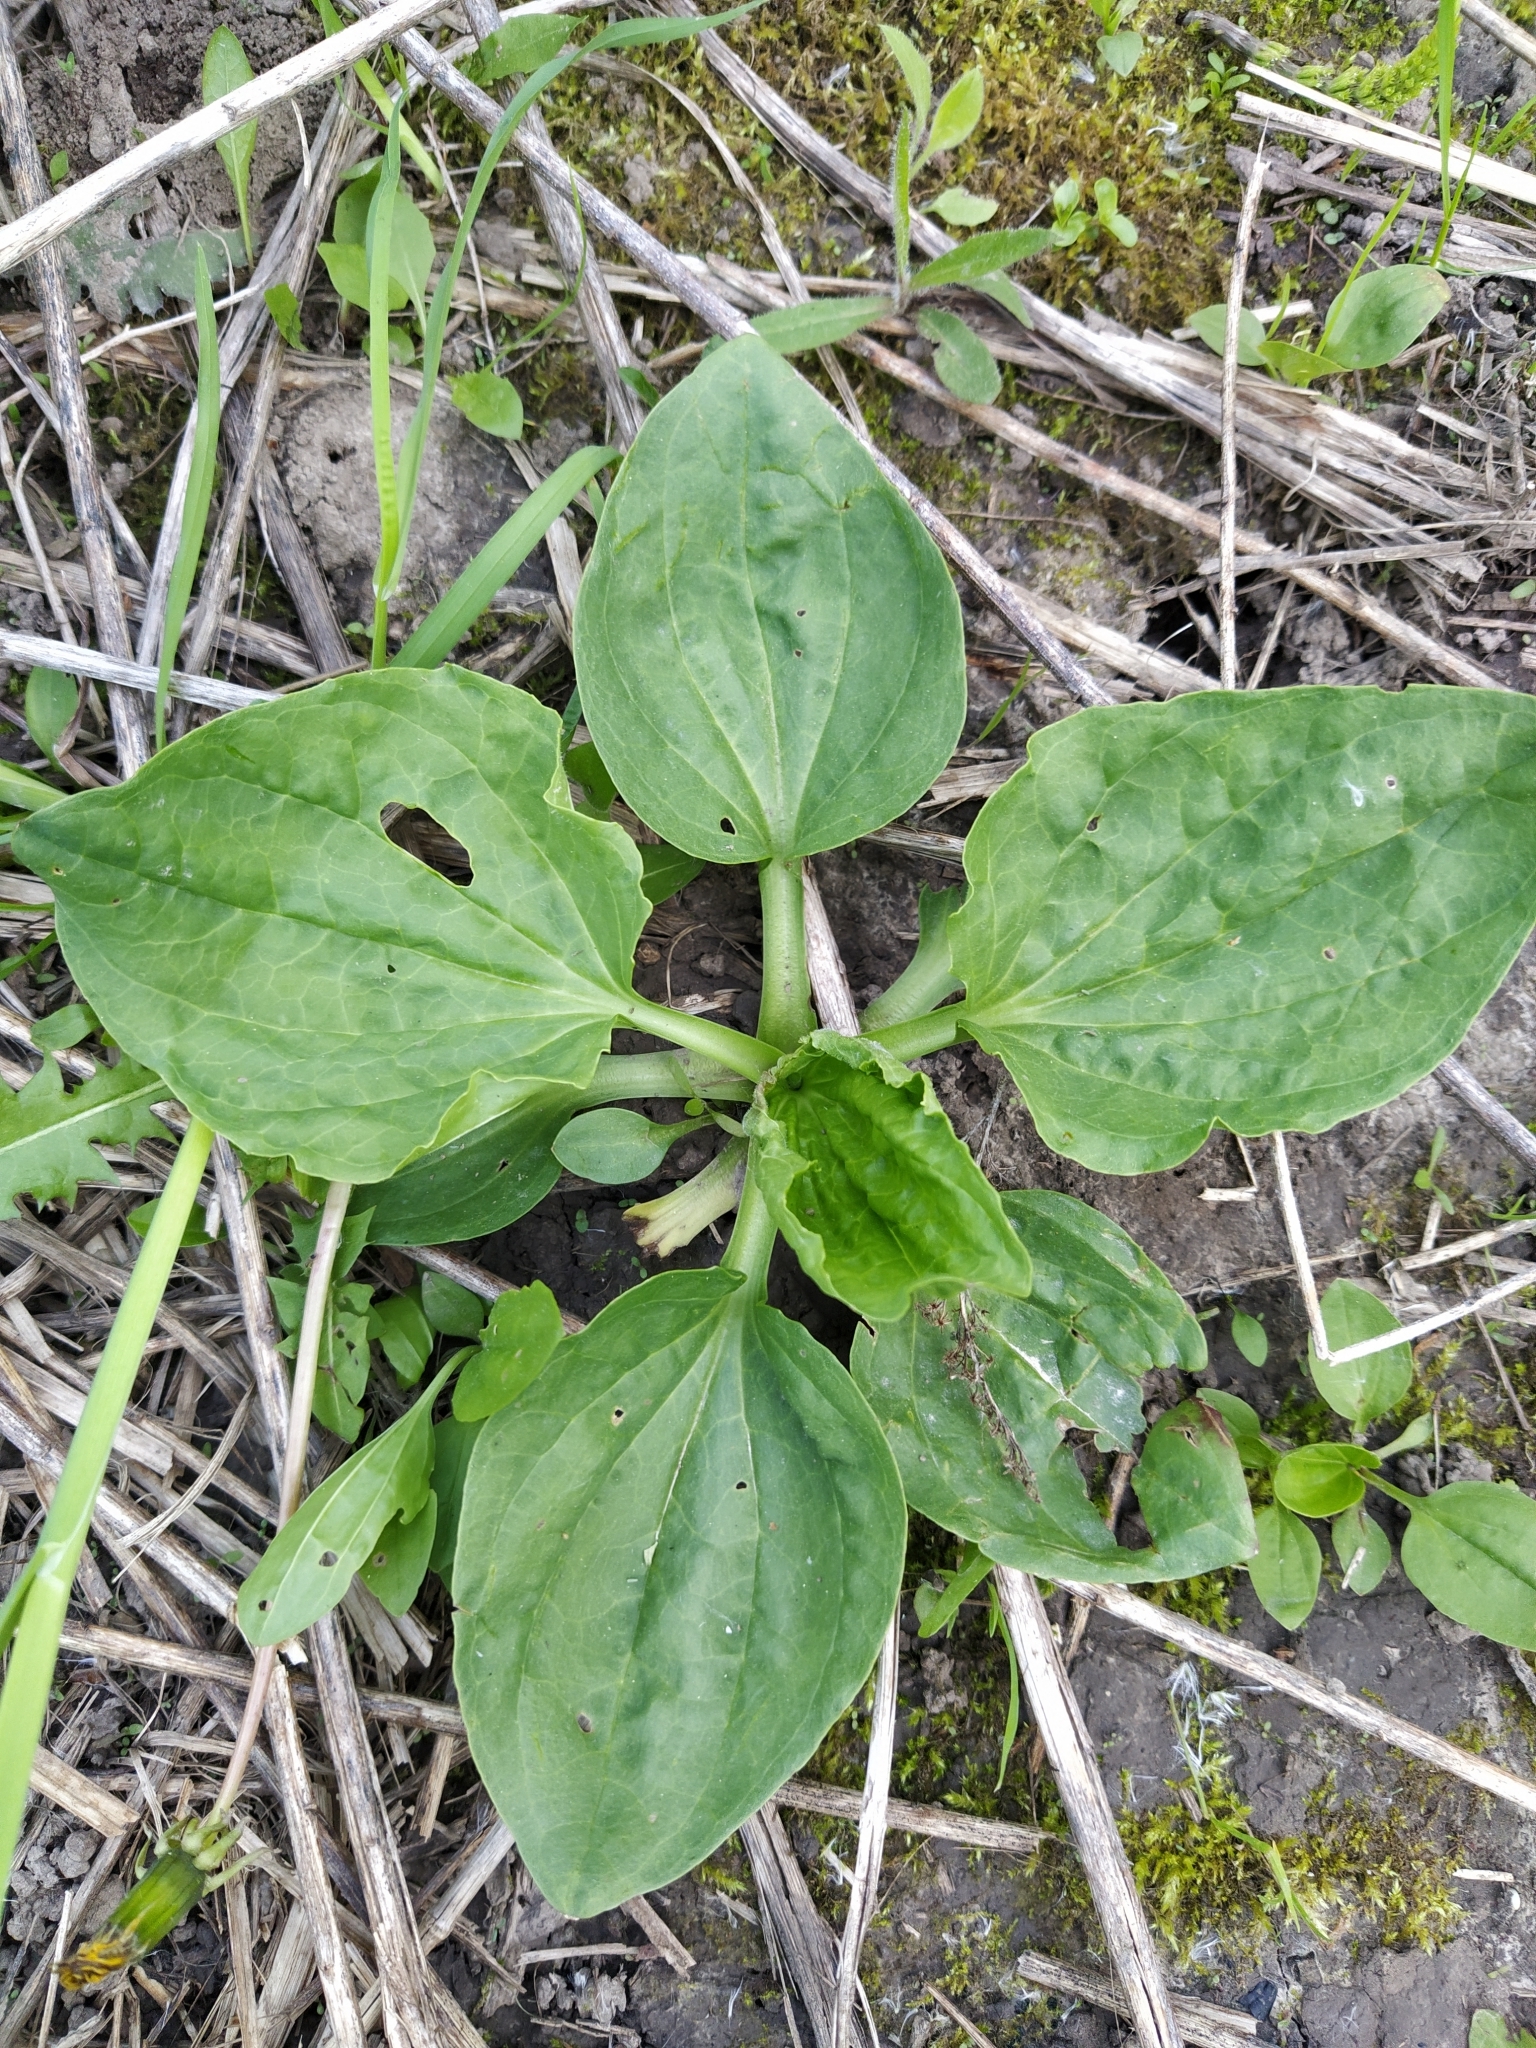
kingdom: Plantae
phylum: Tracheophyta
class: Magnoliopsida
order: Lamiales
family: Plantaginaceae
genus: Plantago
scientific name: Plantago major
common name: Common plantain
